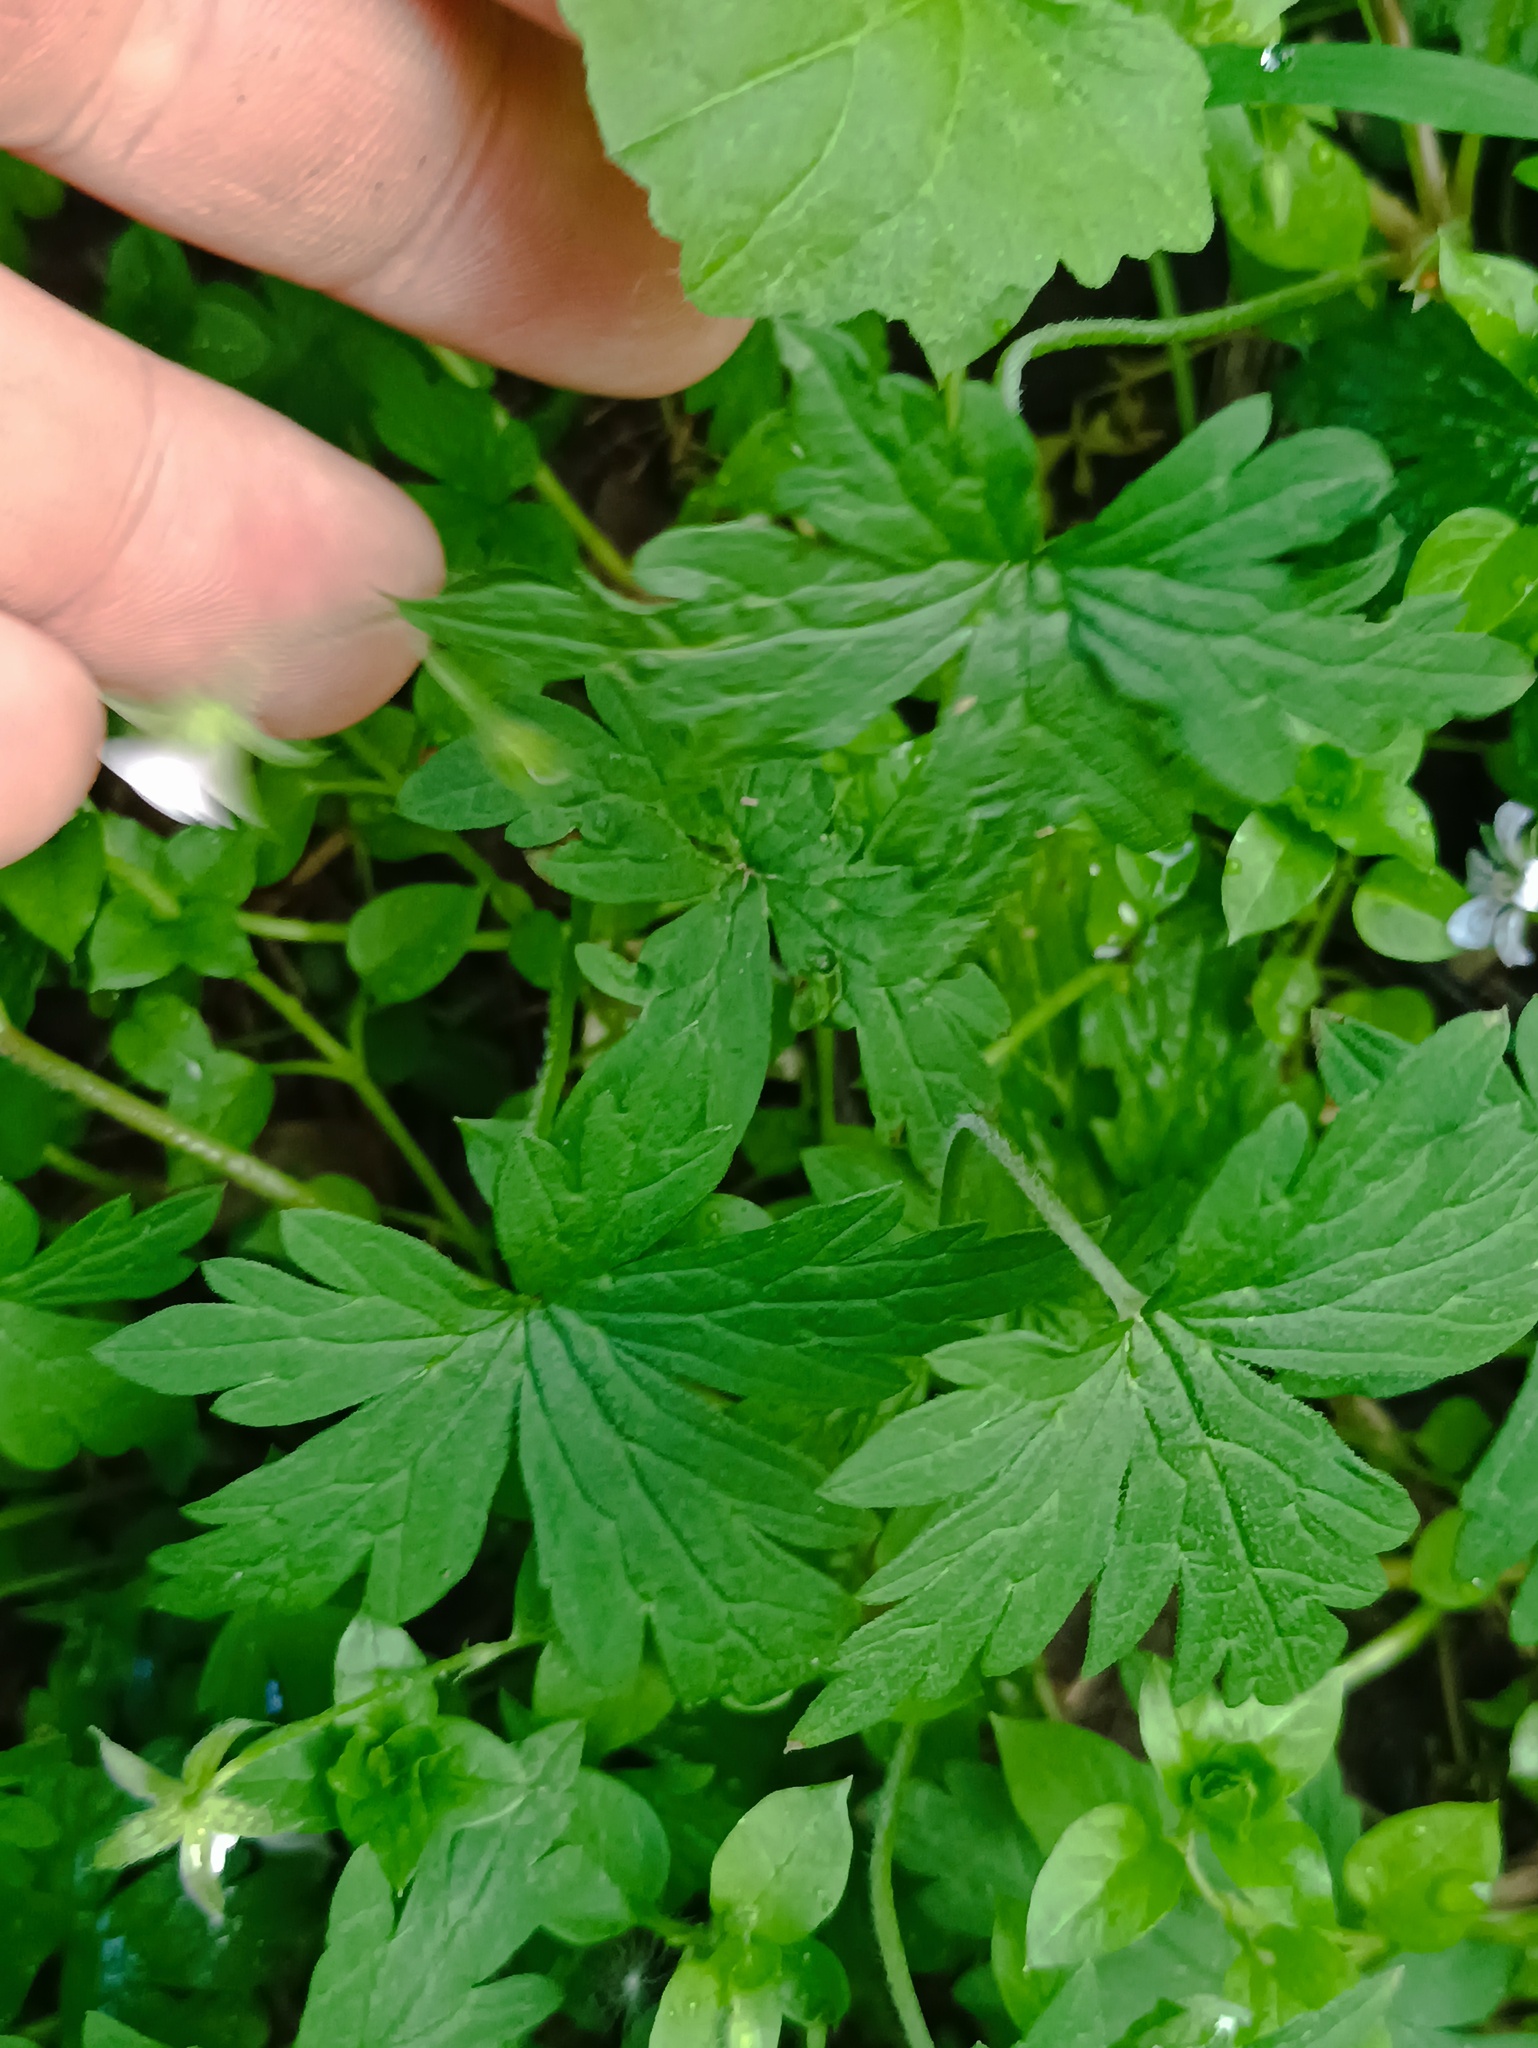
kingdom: Plantae
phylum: Tracheophyta
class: Magnoliopsida
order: Geraniales
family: Geraniaceae
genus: Geranium
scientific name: Geranium sibiricum
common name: Siberian crane's-bill
